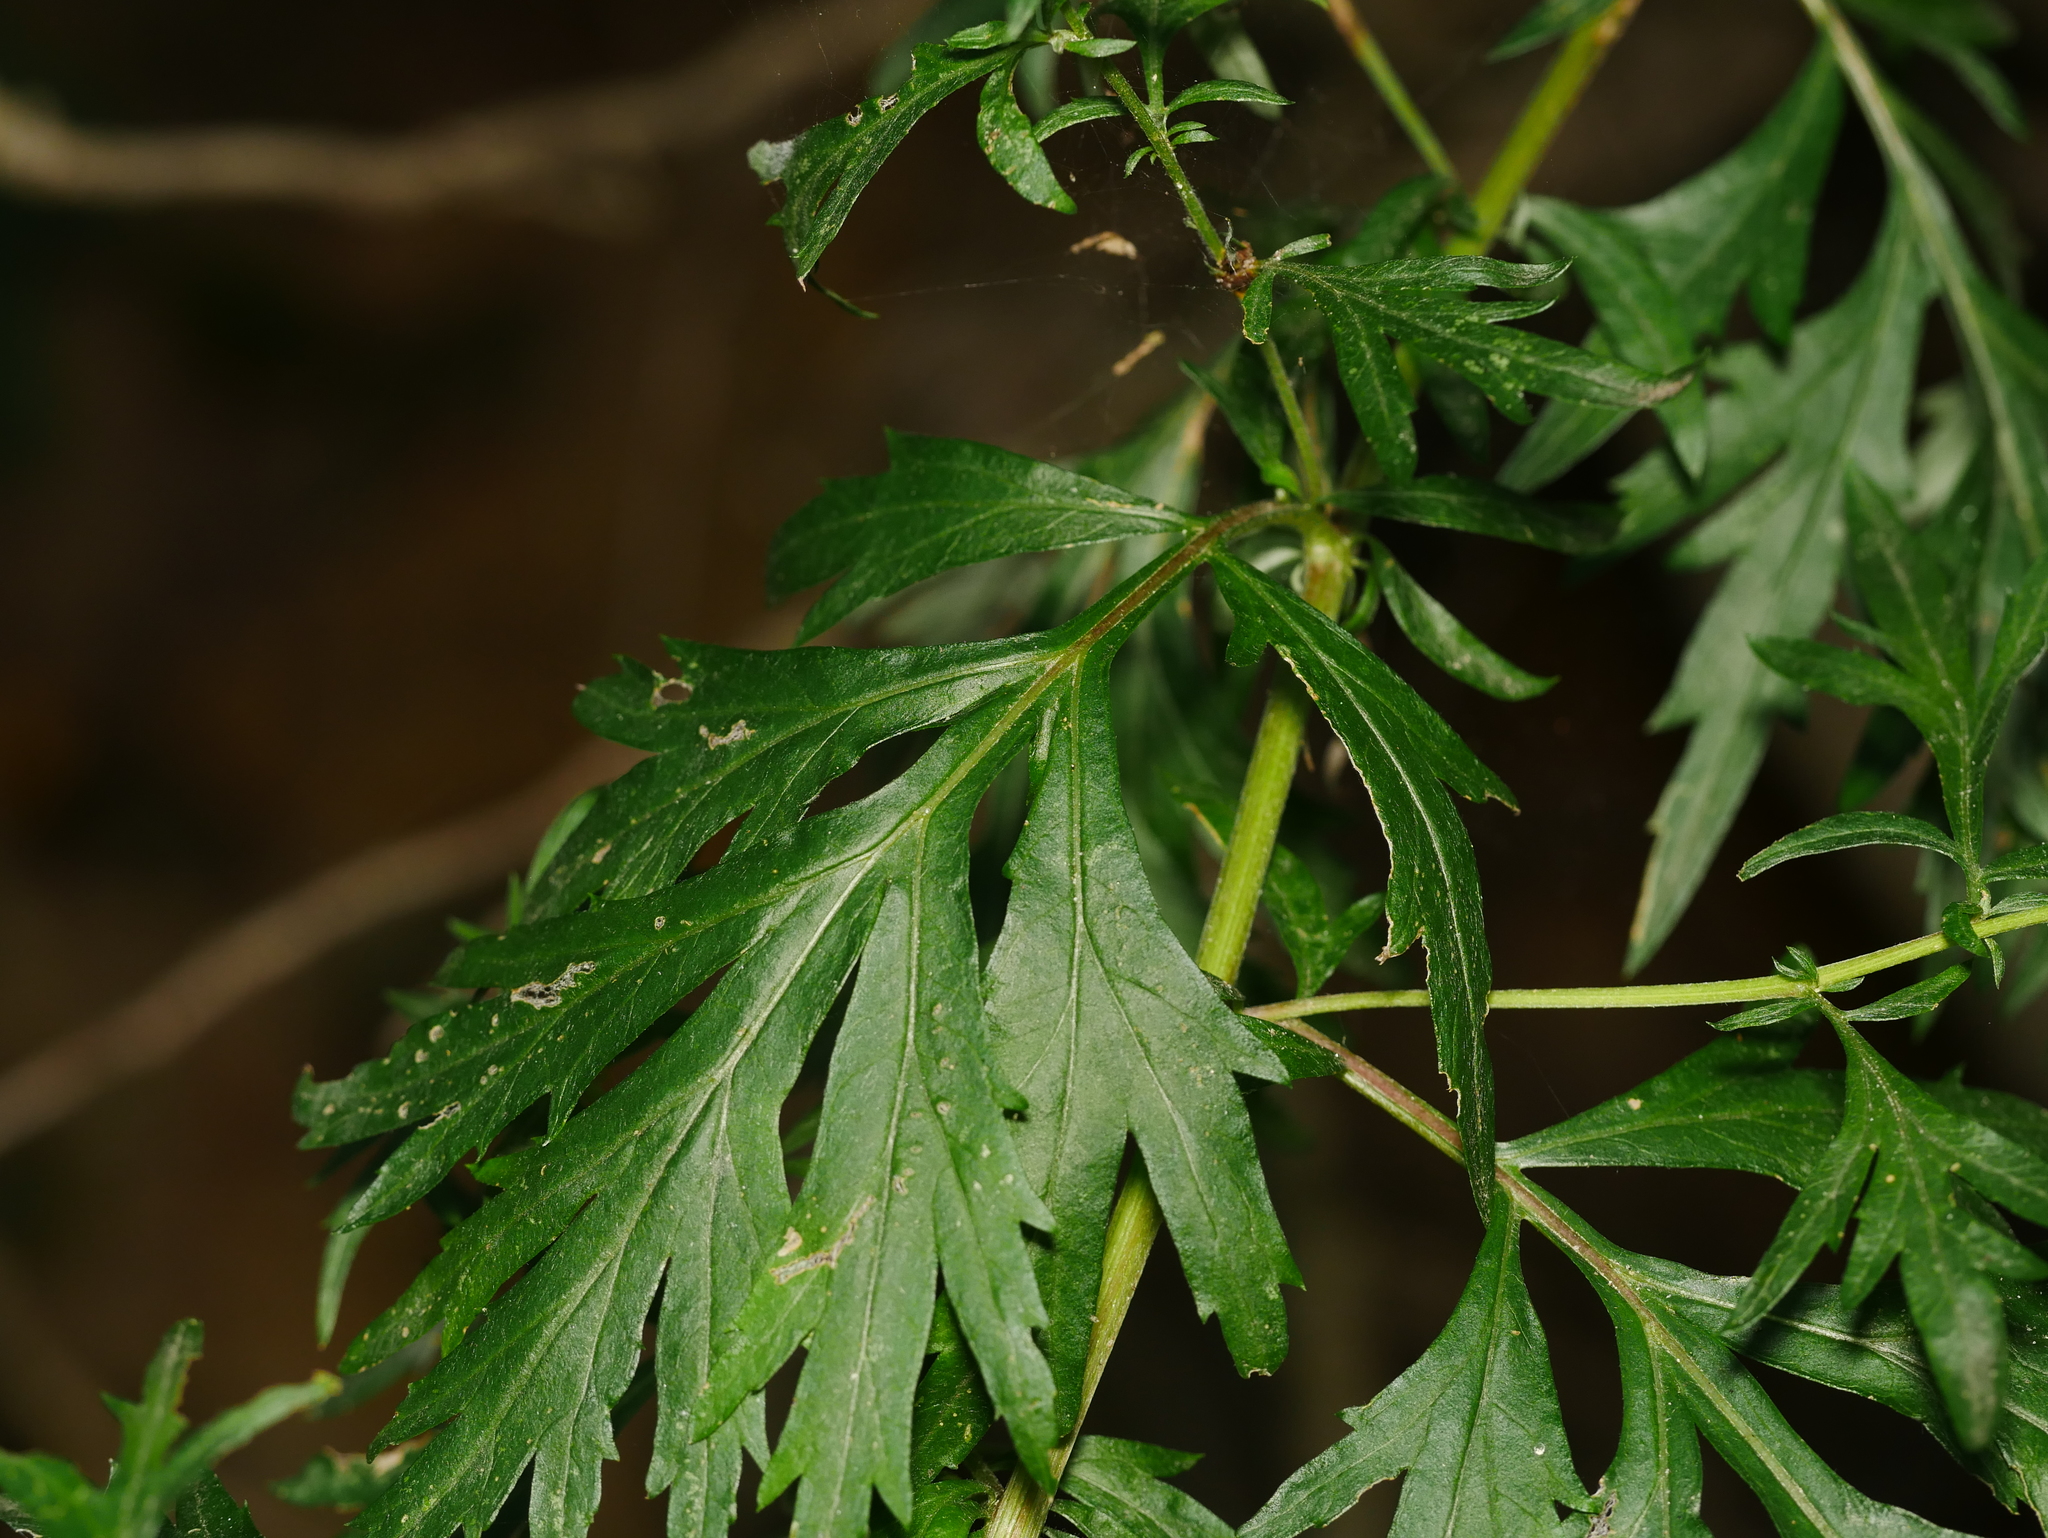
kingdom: Plantae
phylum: Tracheophyta
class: Magnoliopsida
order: Asterales
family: Asteraceae
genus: Artemisia
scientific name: Artemisia vulgaris
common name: Mugwort
